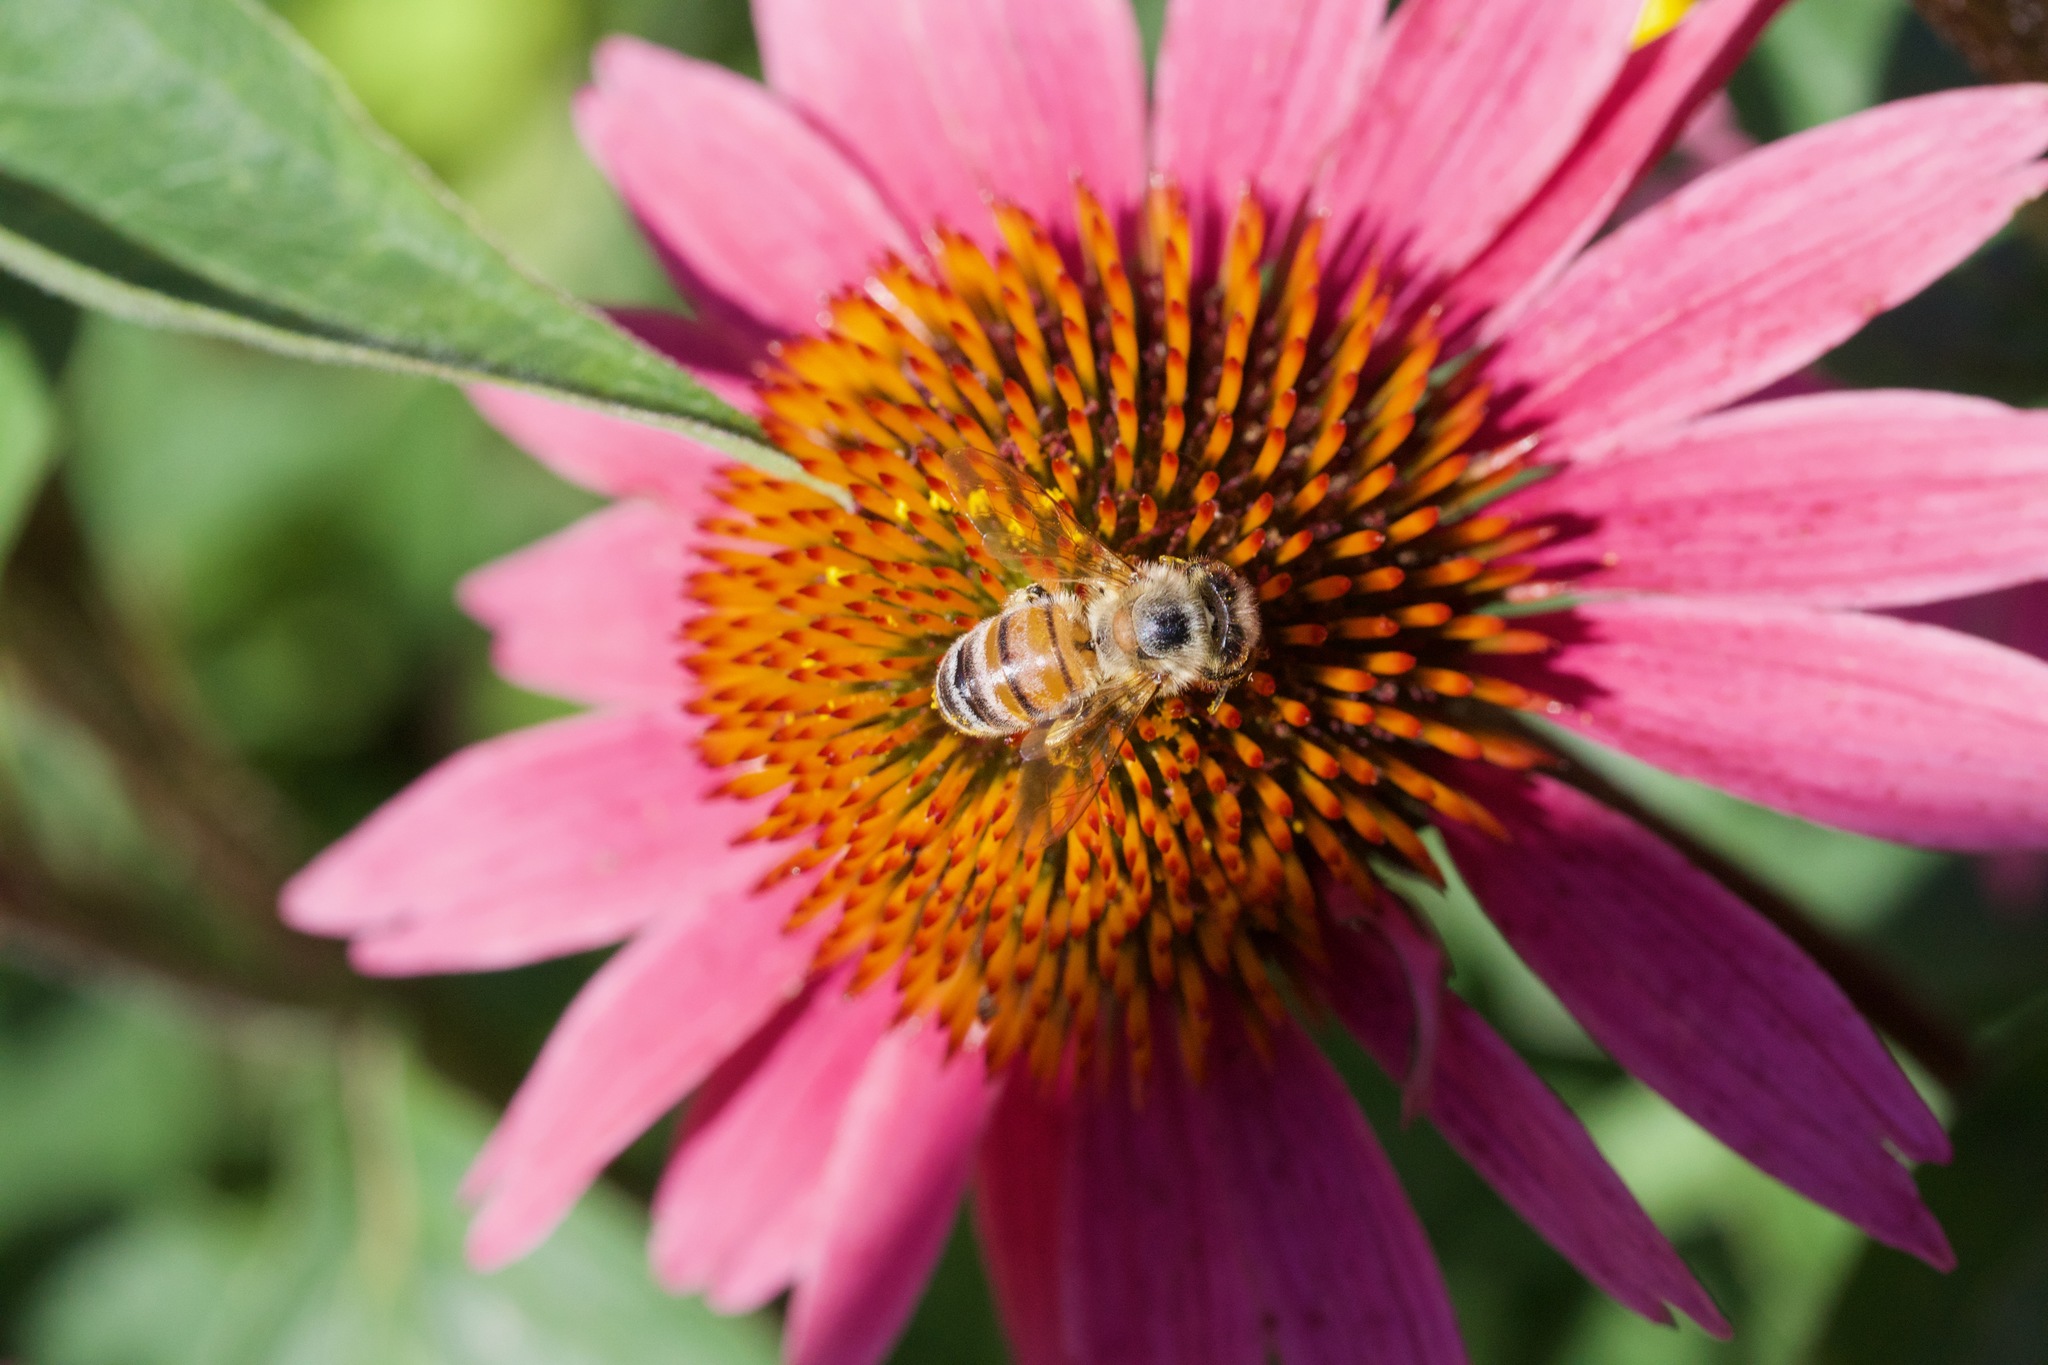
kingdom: Animalia
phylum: Arthropoda
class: Insecta
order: Hymenoptera
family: Apidae
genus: Apis
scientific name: Apis mellifera
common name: Honey bee
